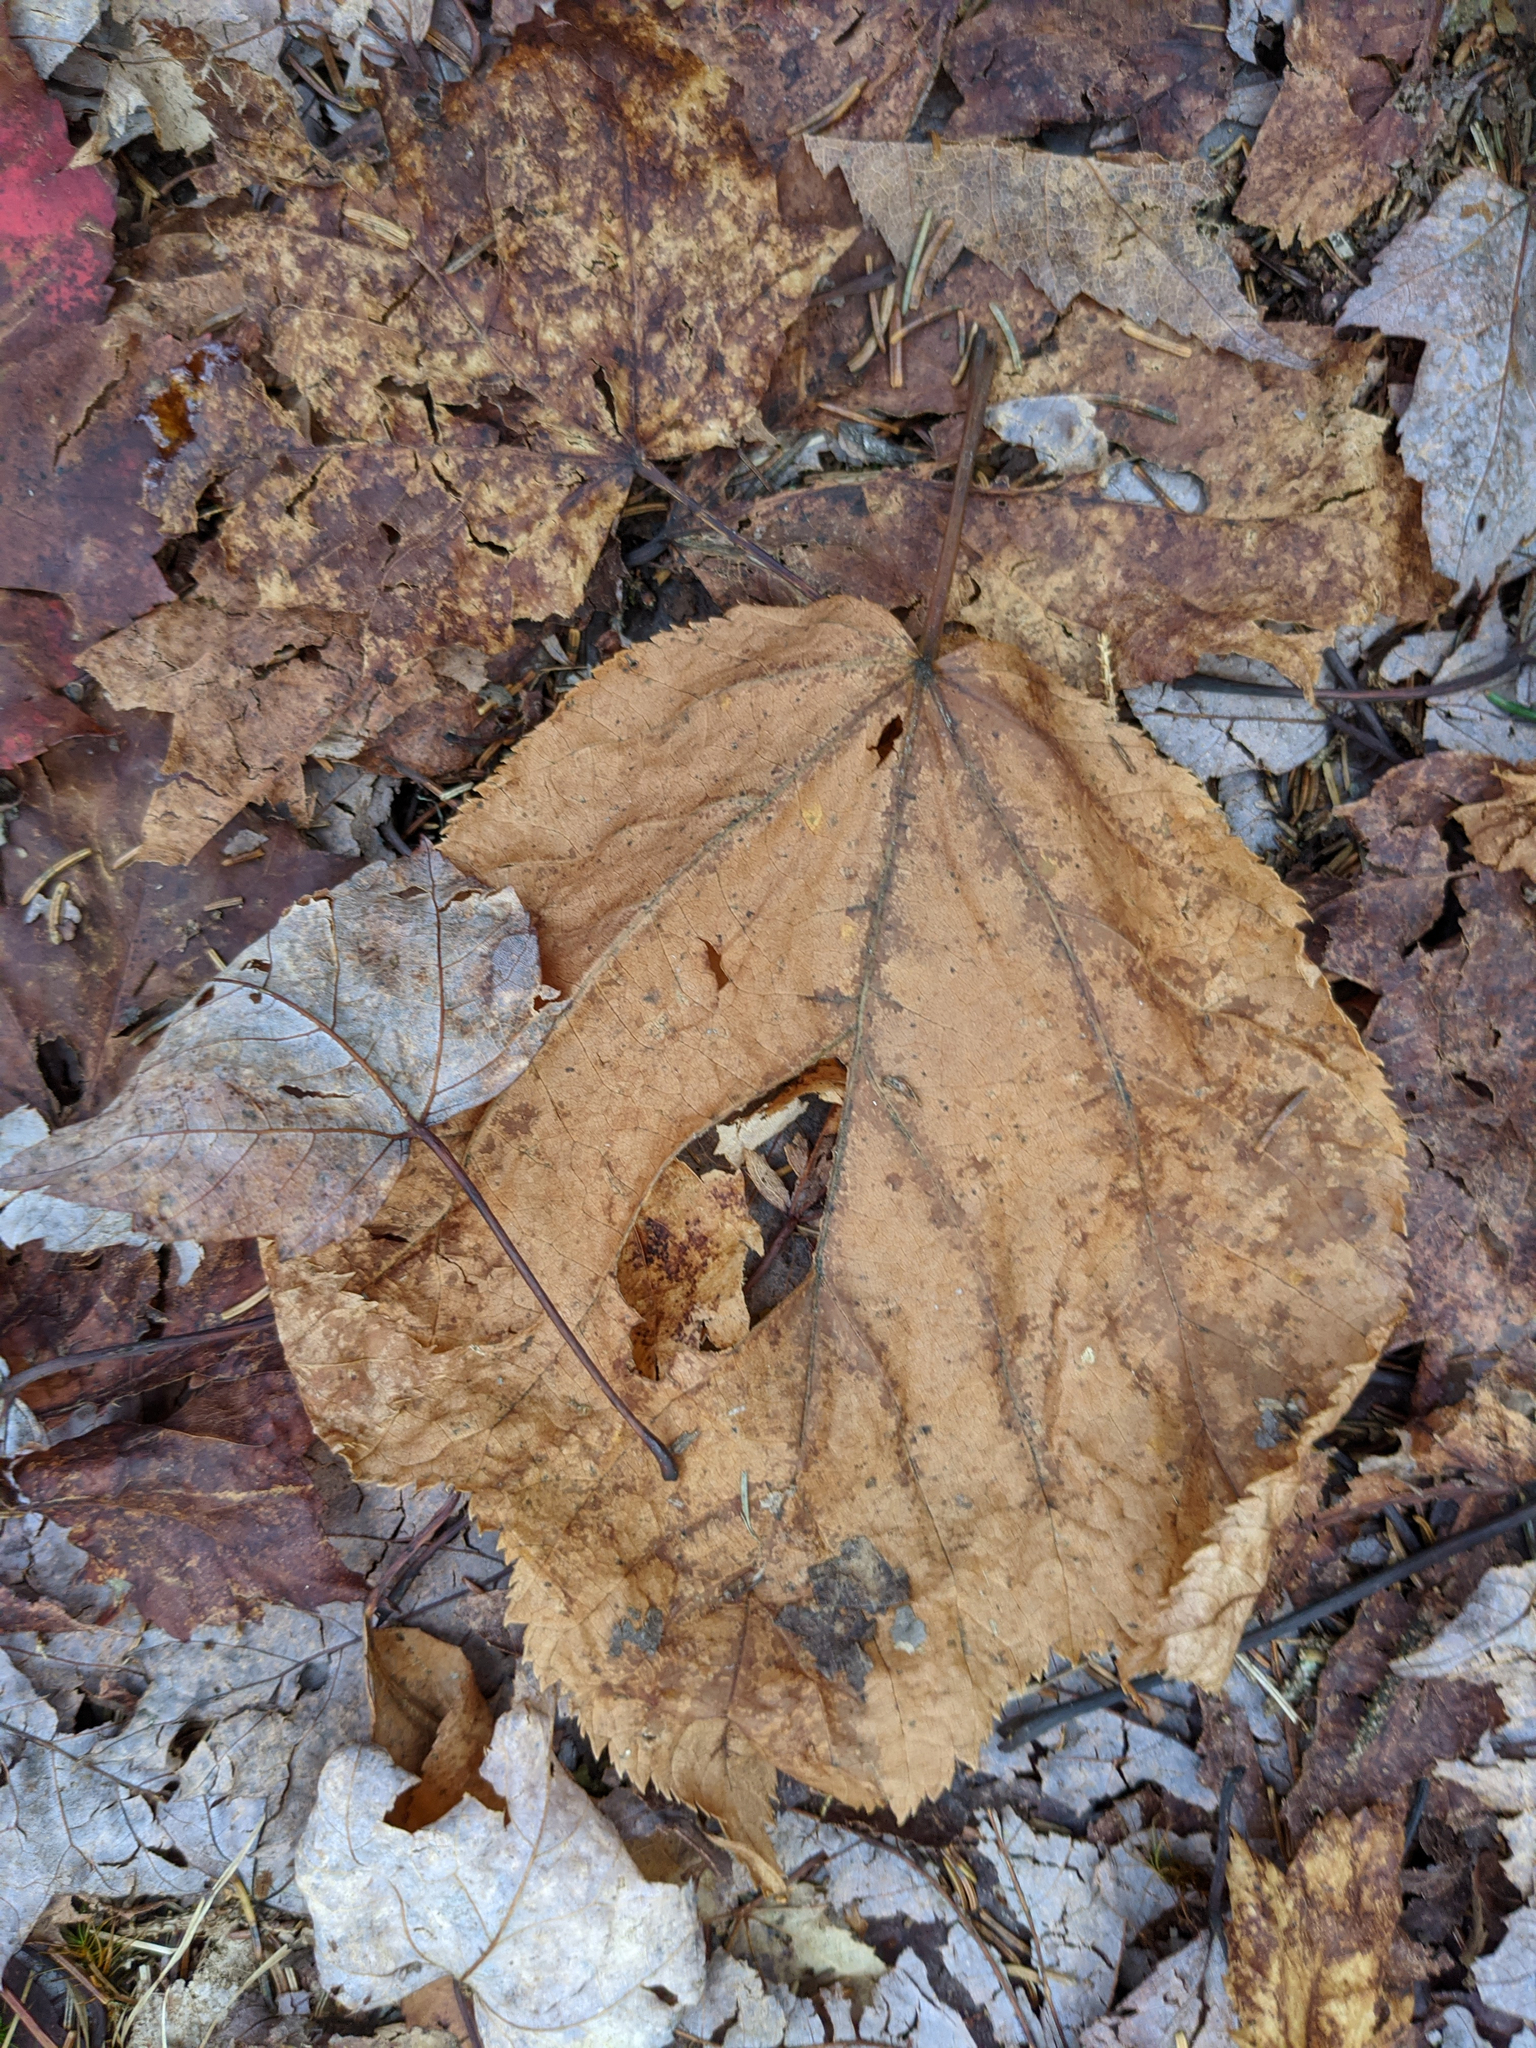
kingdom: Plantae
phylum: Tracheophyta
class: Magnoliopsida
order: Sapindales
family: Sapindaceae
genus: Acer
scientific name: Acer pensylvanicum
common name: Moosewood
